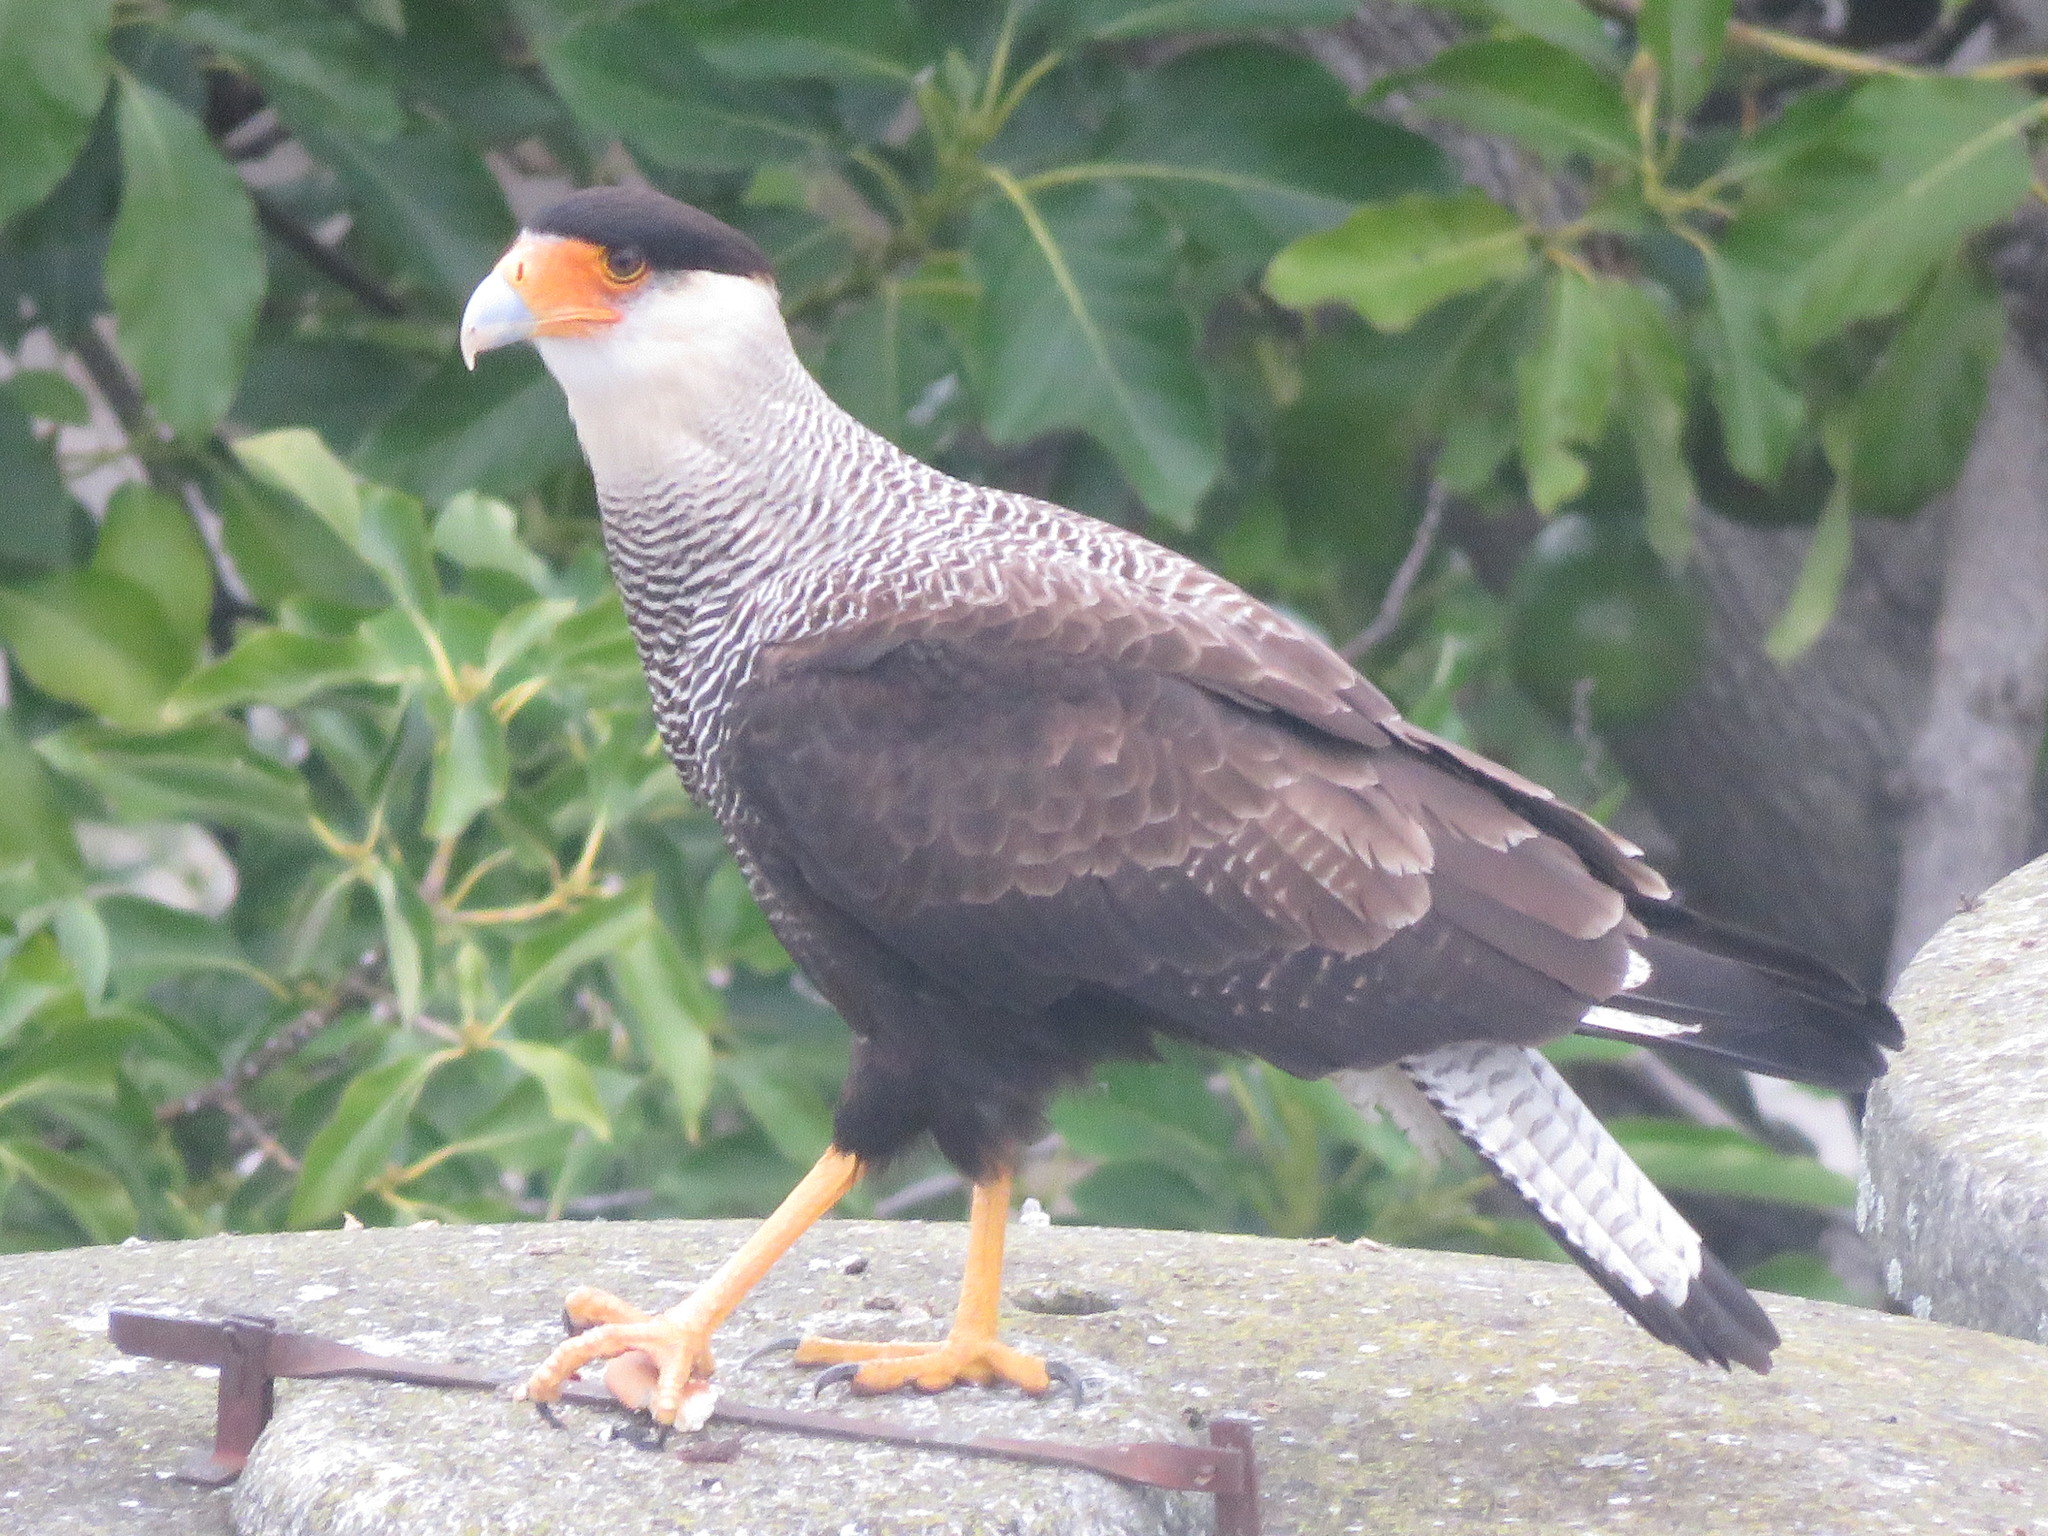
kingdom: Animalia
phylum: Chordata
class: Aves
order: Falconiformes
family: Falconidae
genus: Caracara
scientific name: Caracara plancus
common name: Southern caracara
